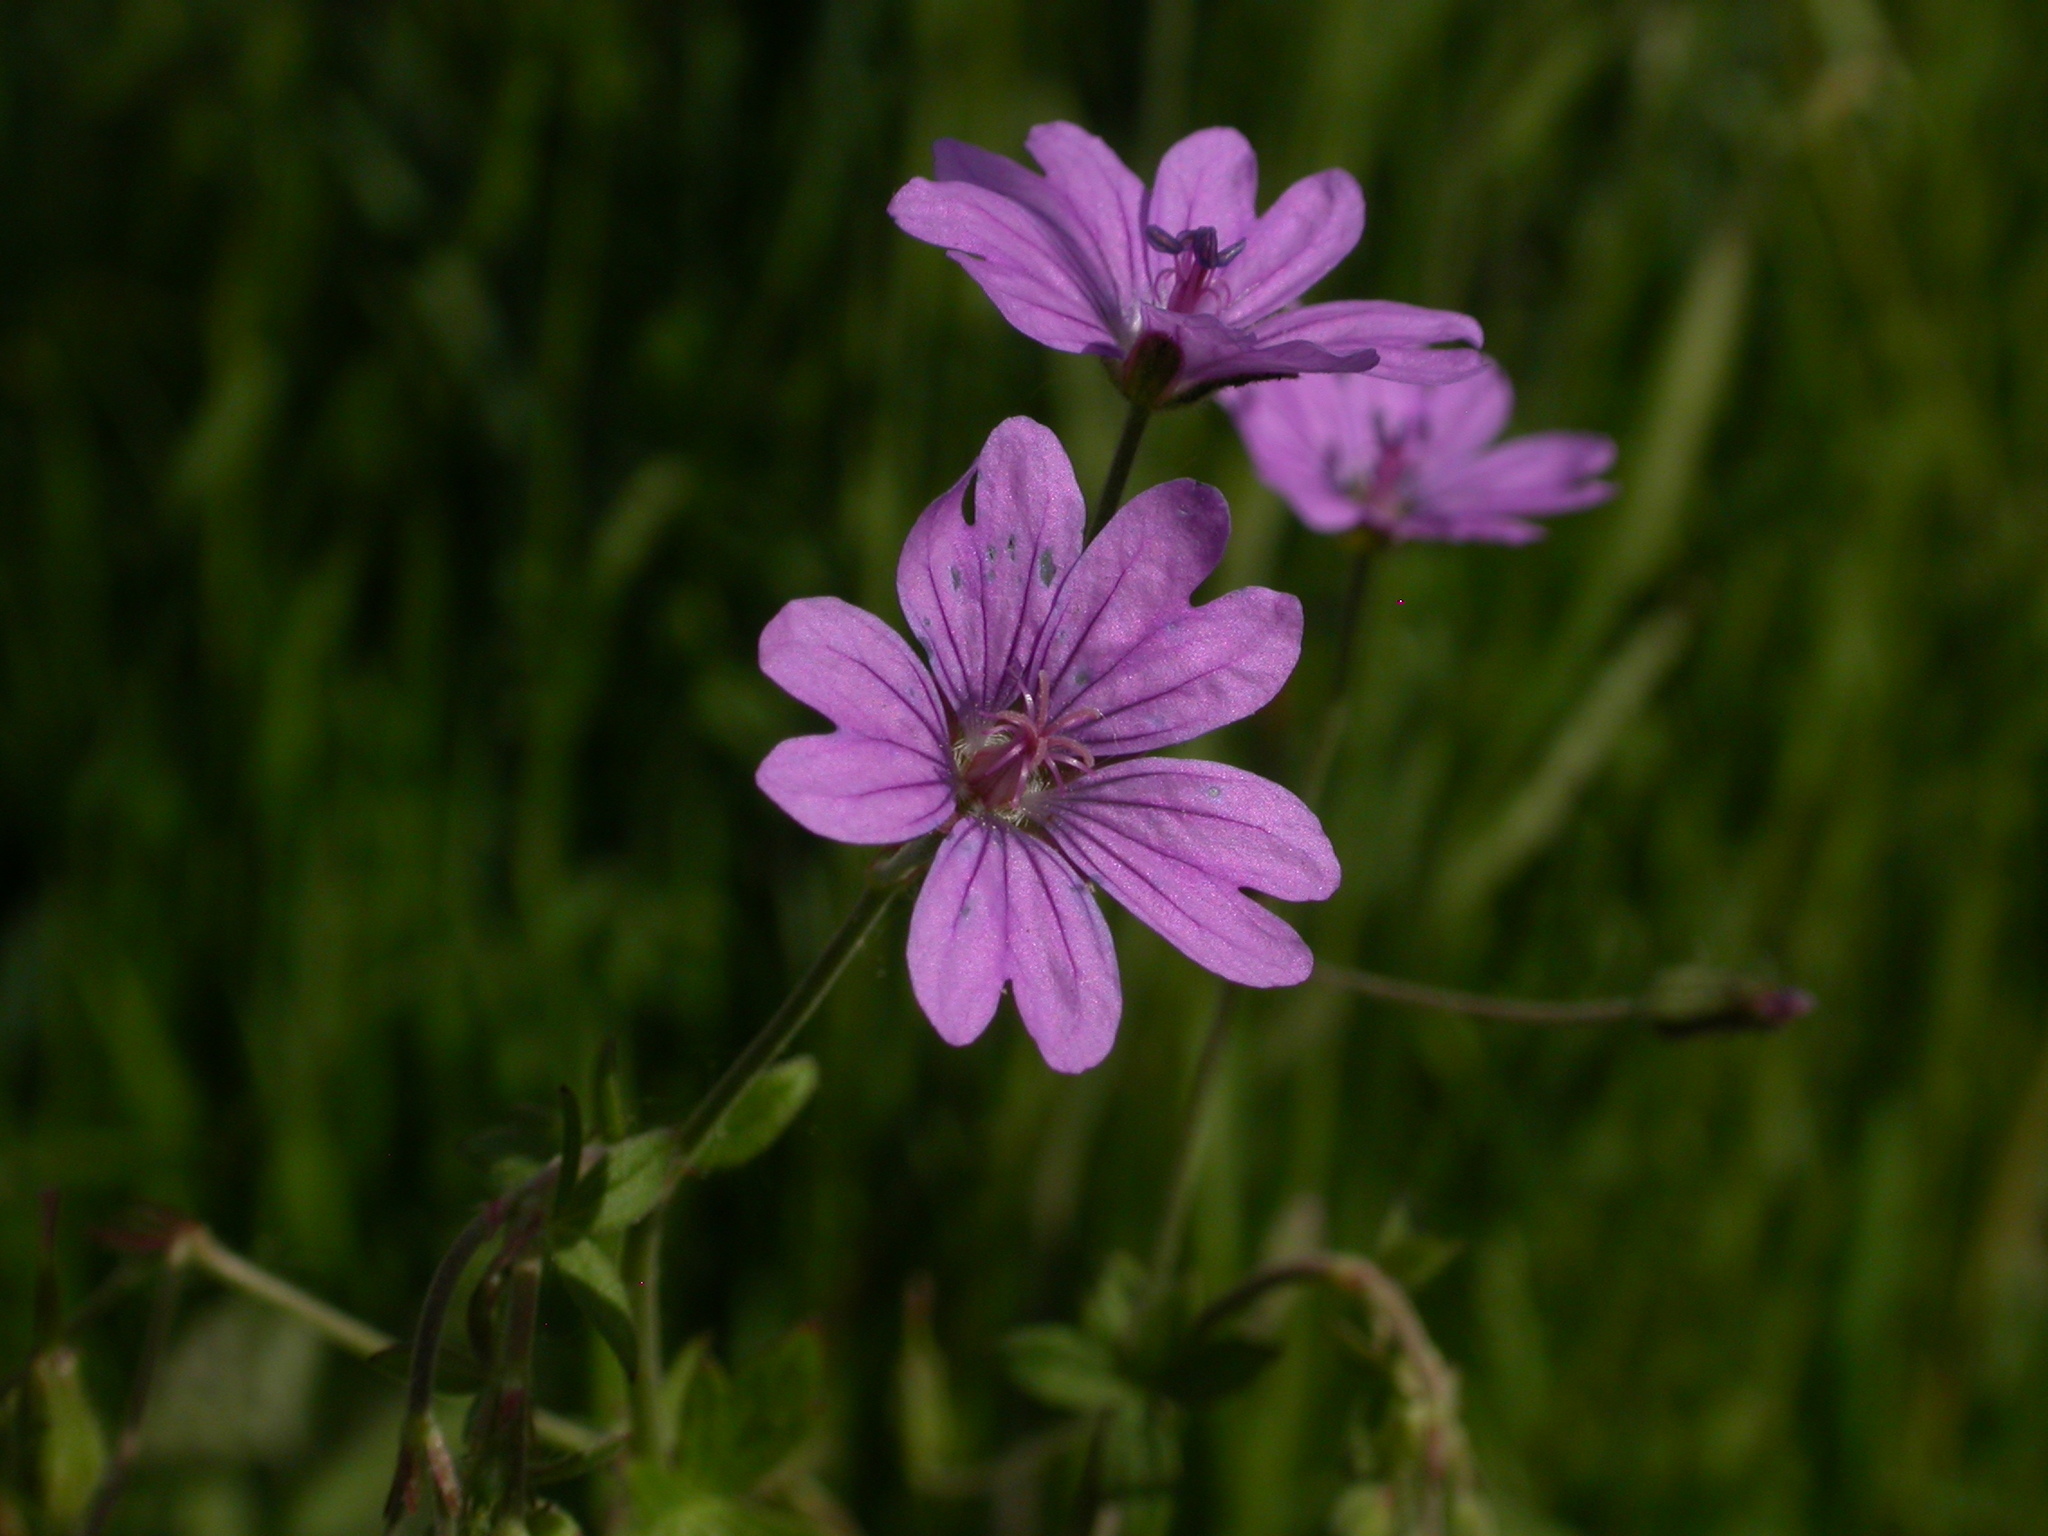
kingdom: Plantae
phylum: Tracheophyta
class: Magnoliopsida
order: Geraniales
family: Geraniaceae
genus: Geranium
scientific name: Geranium pyrenaicum
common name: Hedgerow crane's-bill
